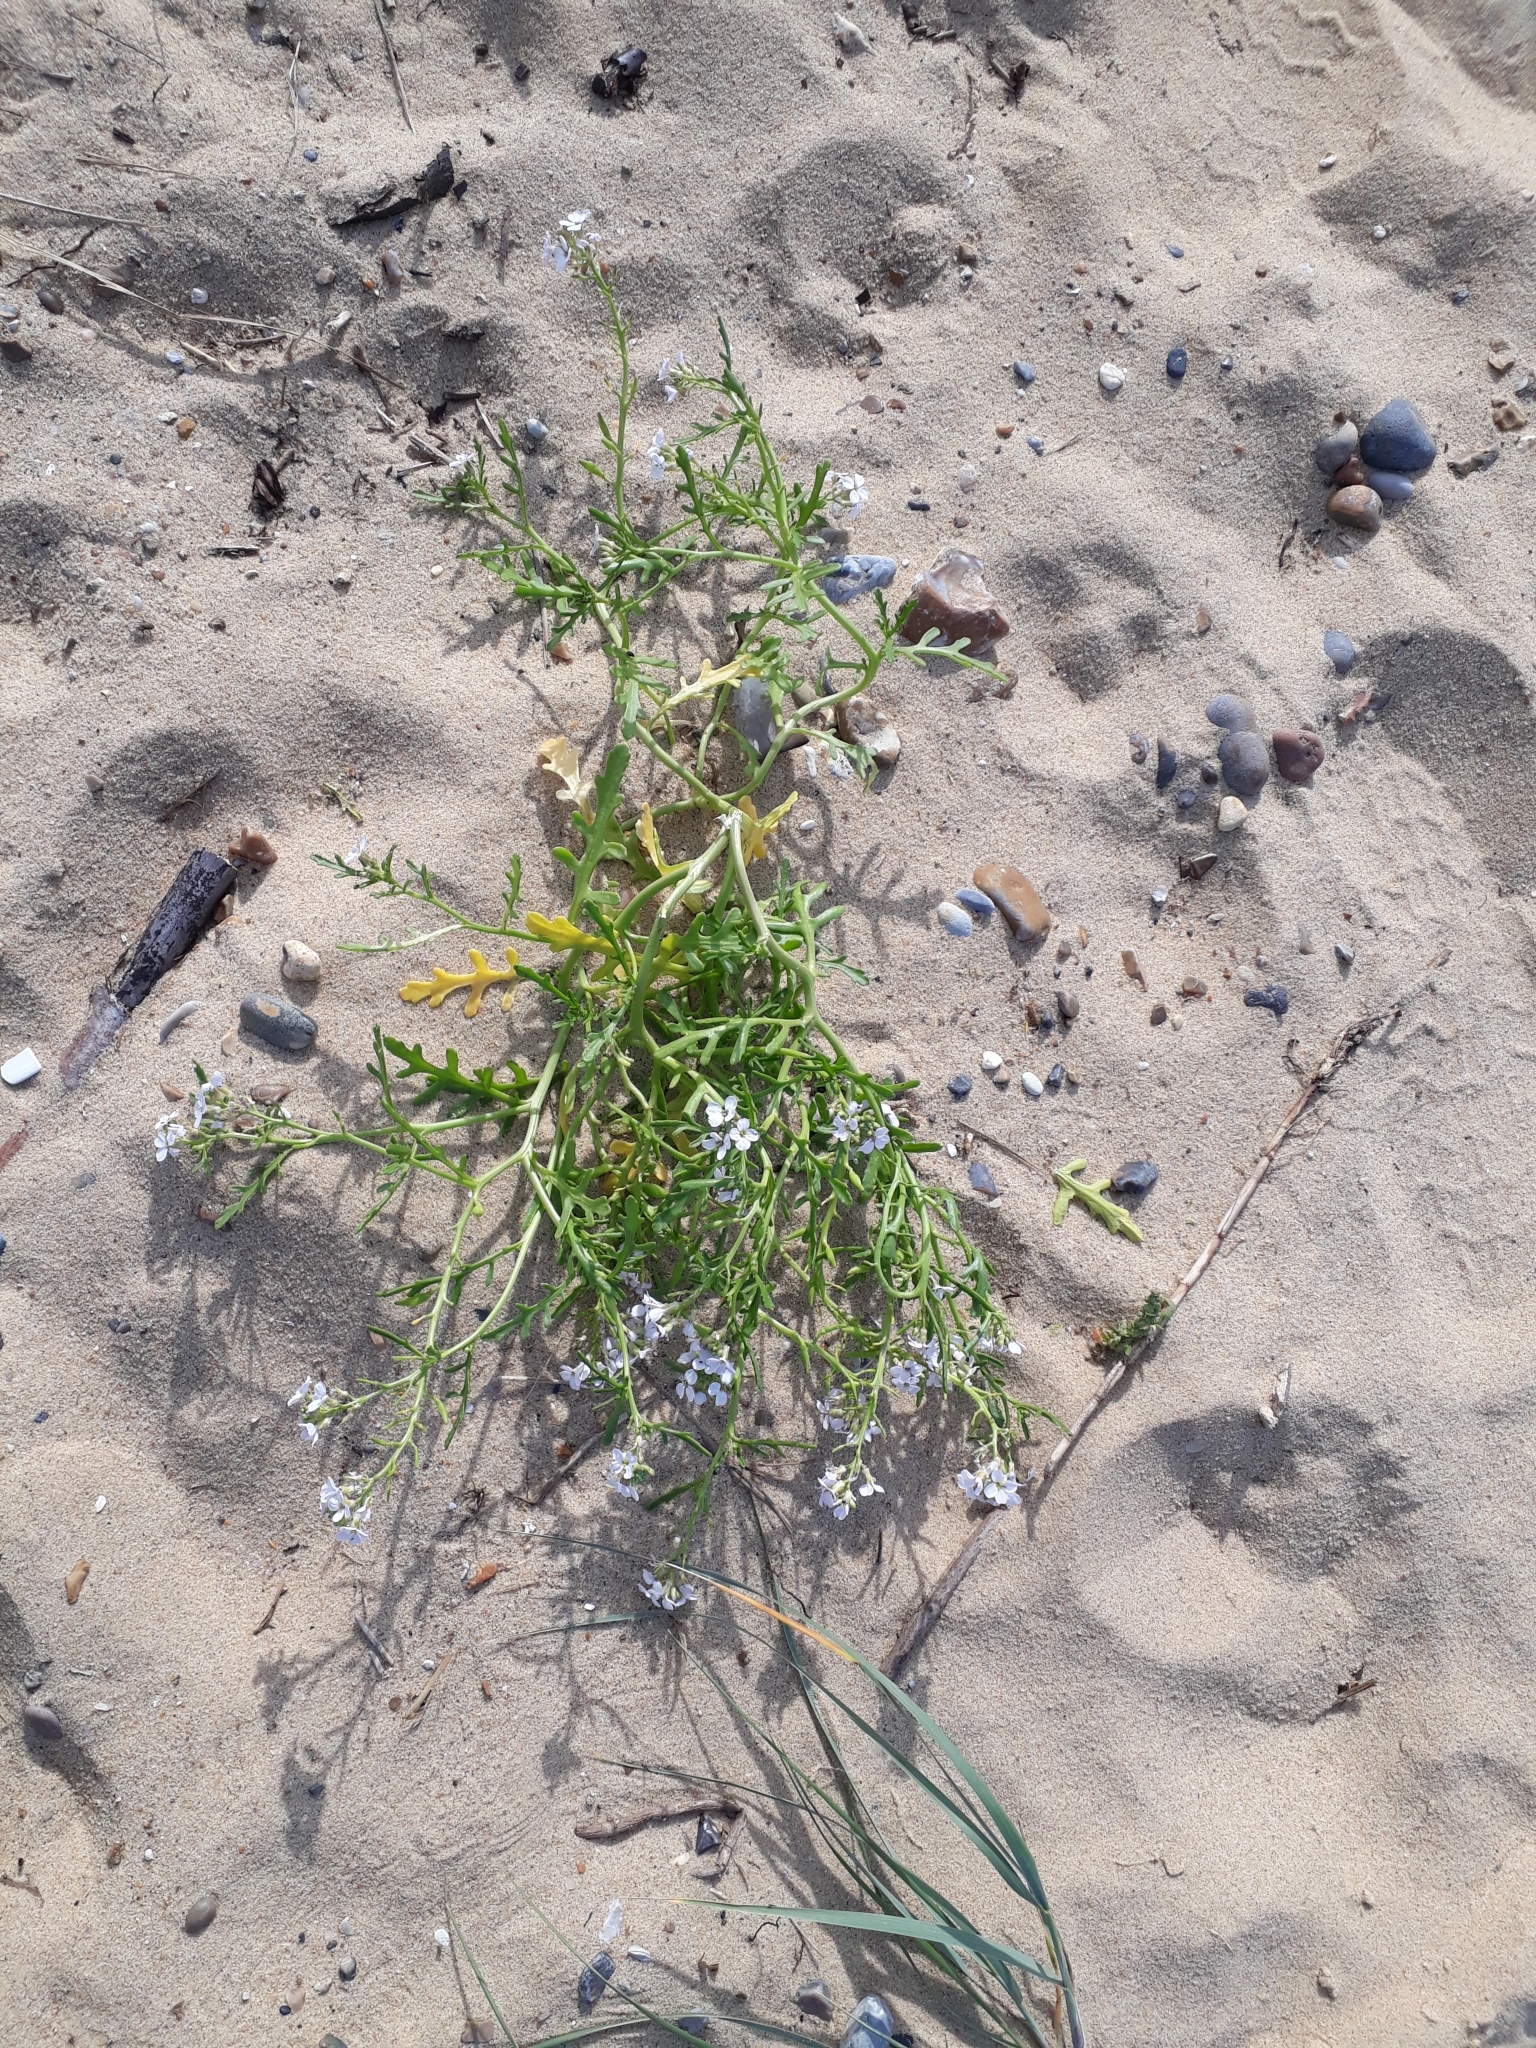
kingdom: Plantae
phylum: Tracheophyta
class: Magnoliopsida
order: Brassicales
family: Brassicaceae
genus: Cakile
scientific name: Cakile maritima
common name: Sea rocket
